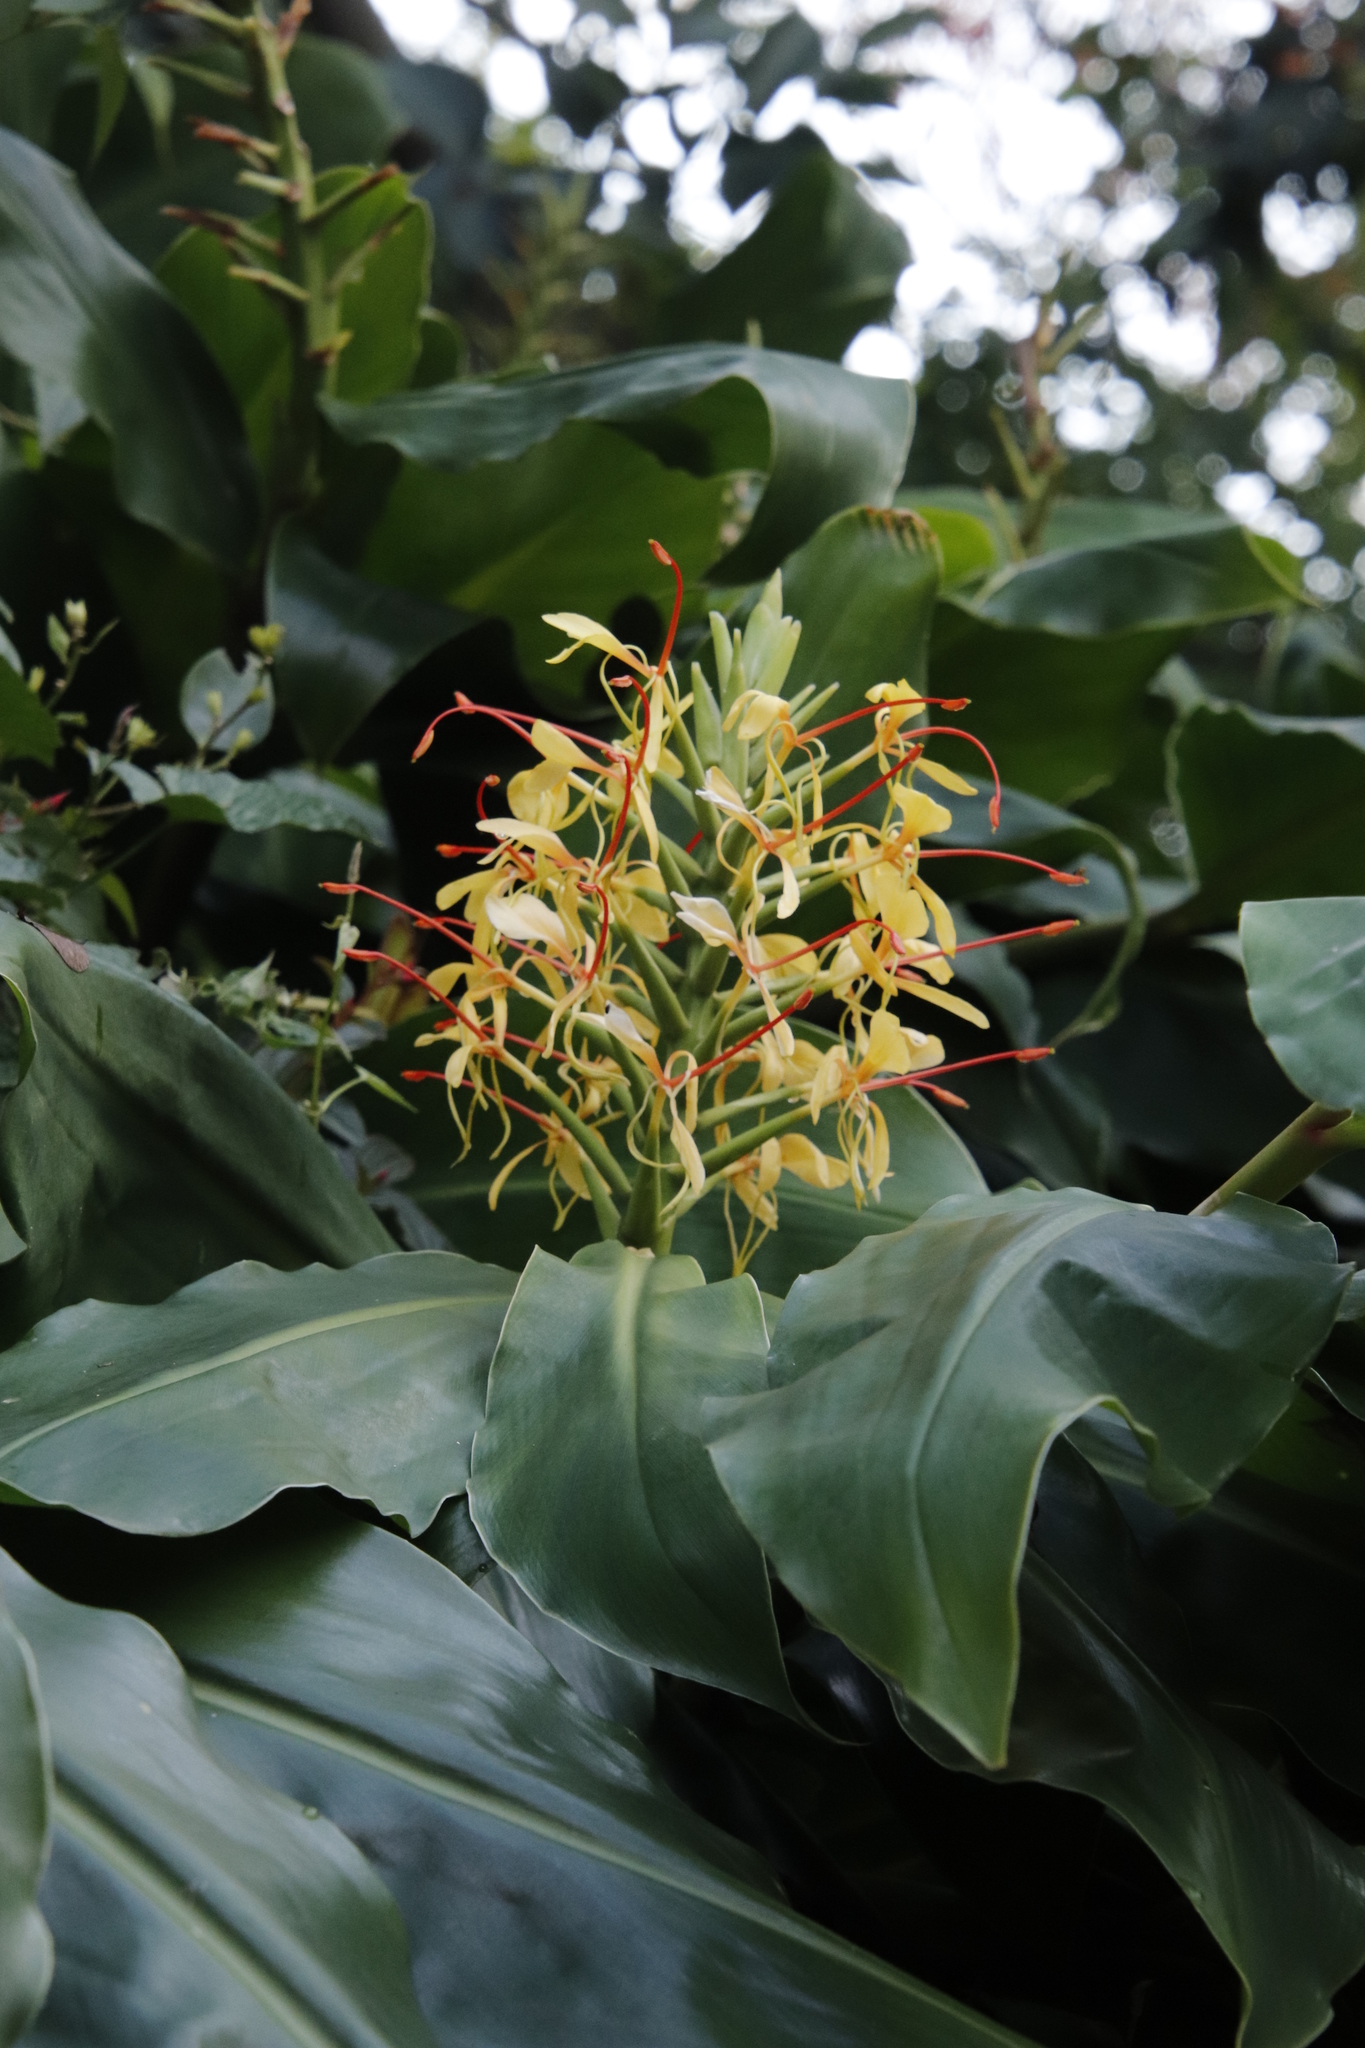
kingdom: Plantae
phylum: Tracheophyta
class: Liliopsida
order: Zingiberales
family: Zingiberaceae
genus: Hedychium
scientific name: Hedychium gardnerianum
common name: Himalayan ginger
